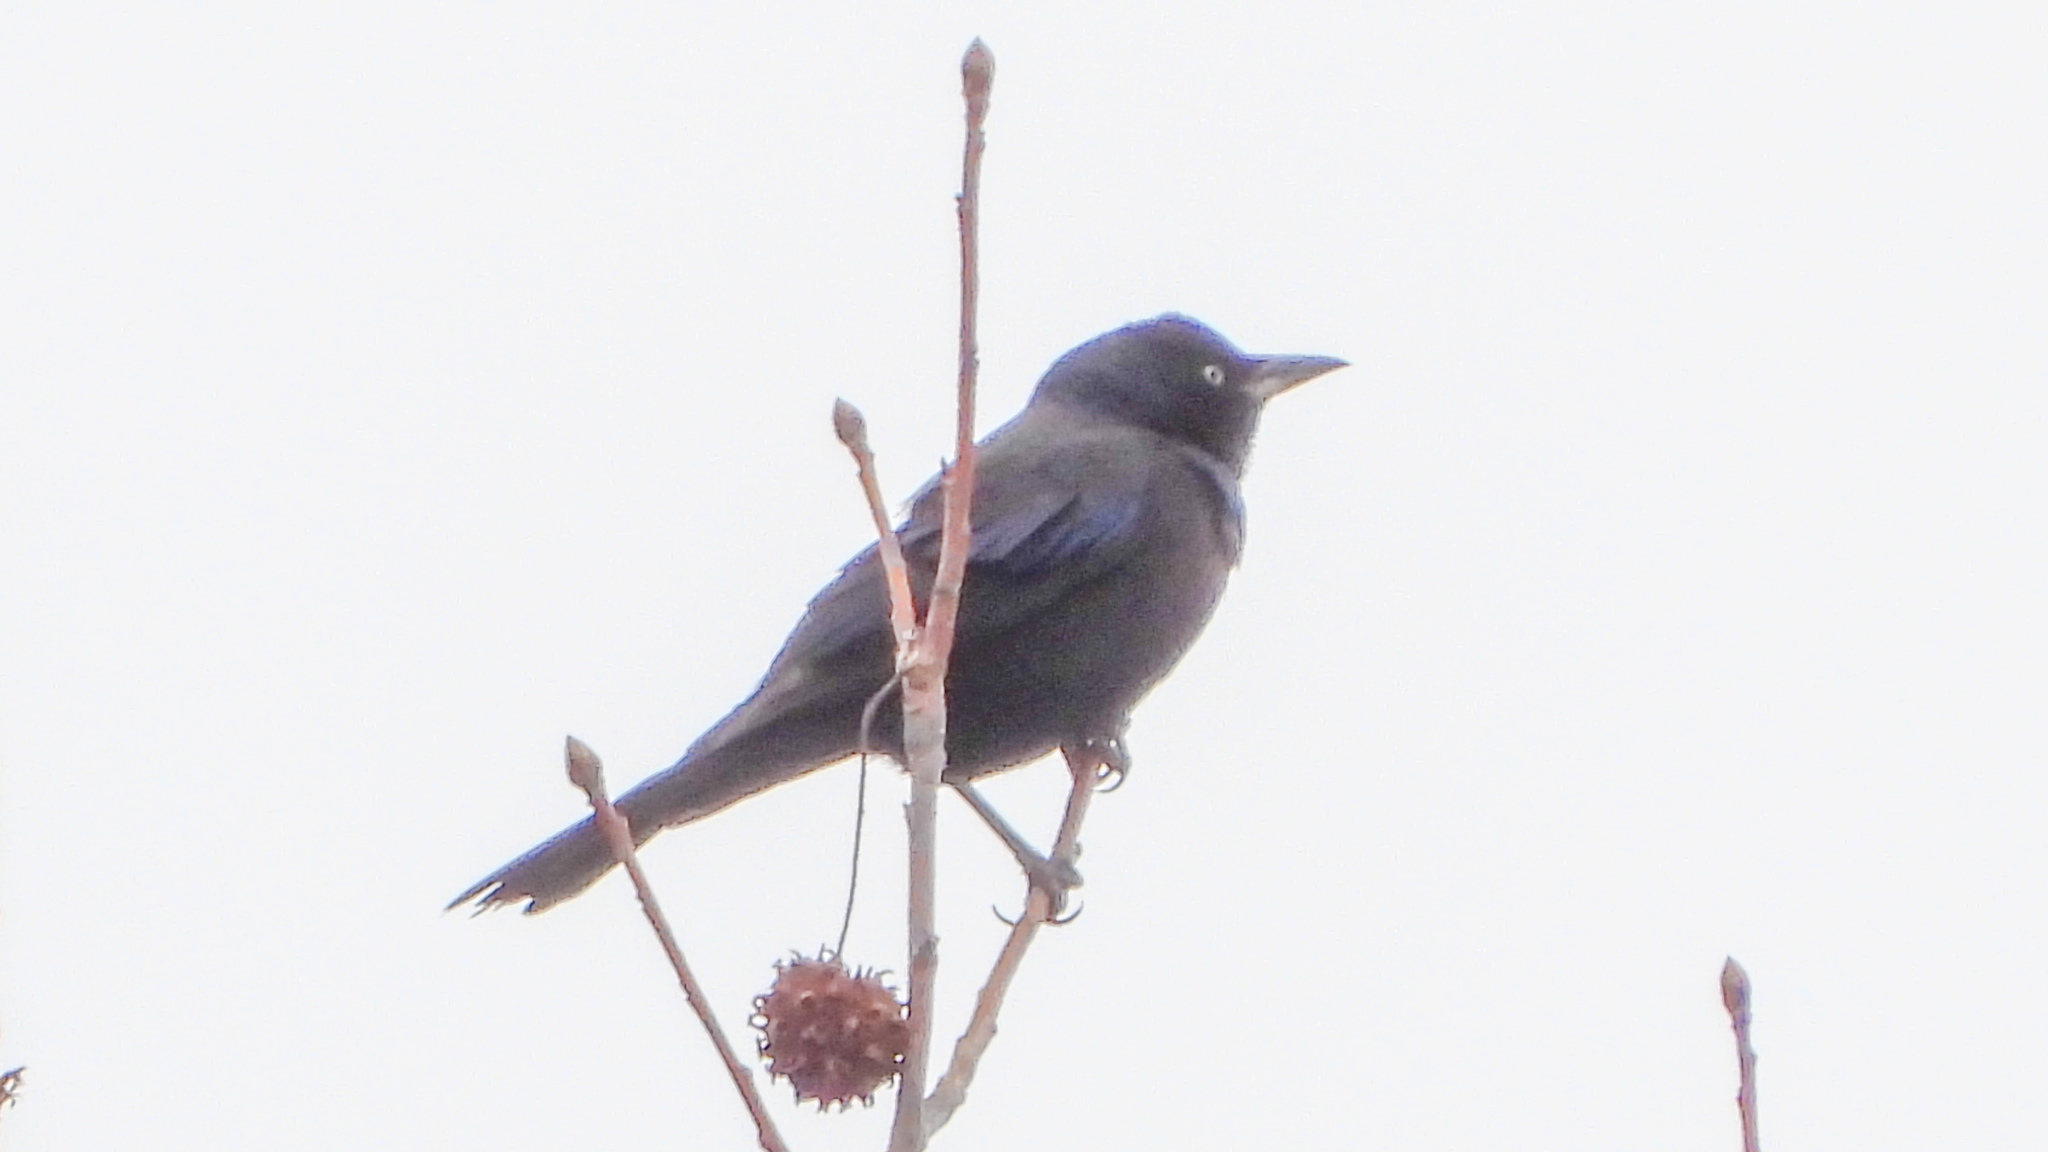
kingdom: Animalia
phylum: Chordata
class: Aves
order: Passeriformes
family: Icteridae
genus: Quiscalus
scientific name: Quiscalus quiscula
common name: Common grackle
